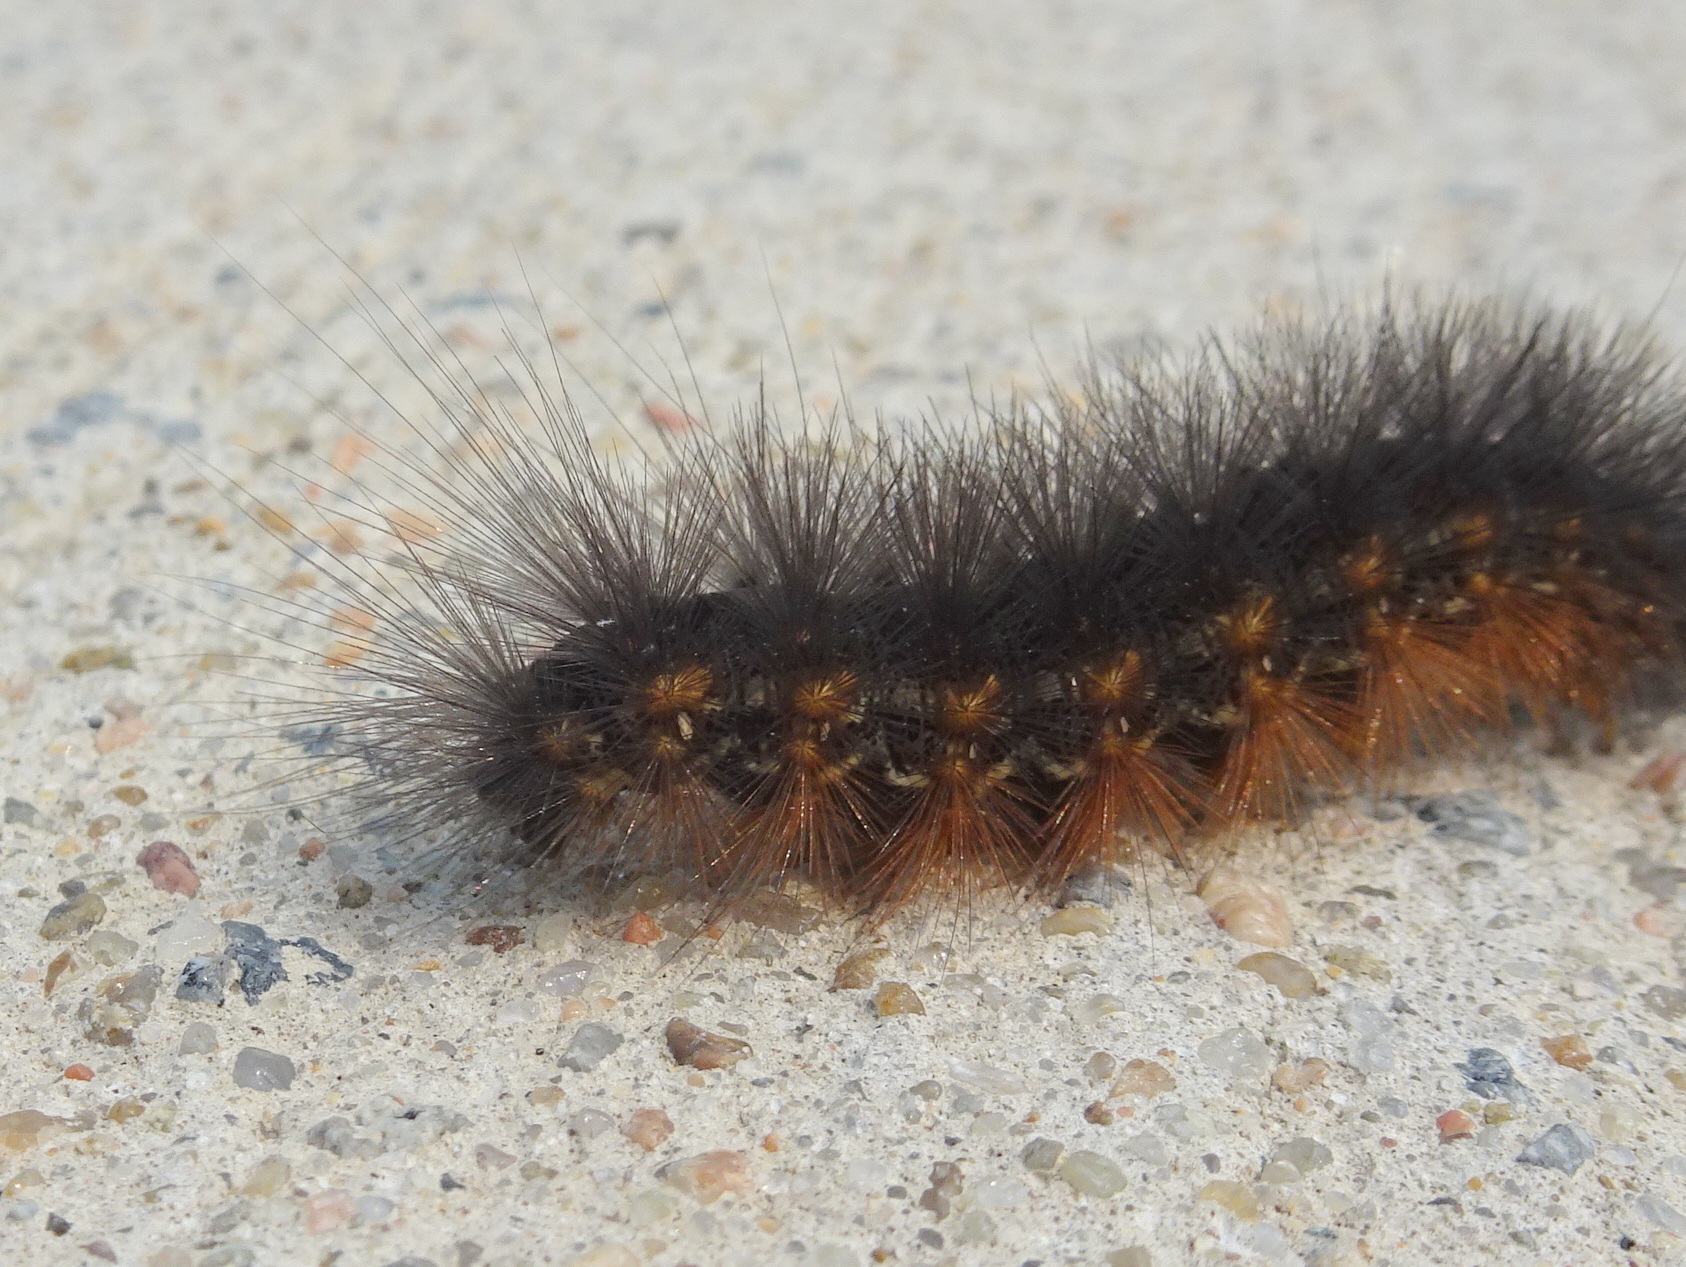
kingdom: Animalia
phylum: Arthropoda
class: Insecta
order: Lepidoptera
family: Erebidae
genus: Estigmene
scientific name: Estigmene acrea
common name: Salt marsh moth
